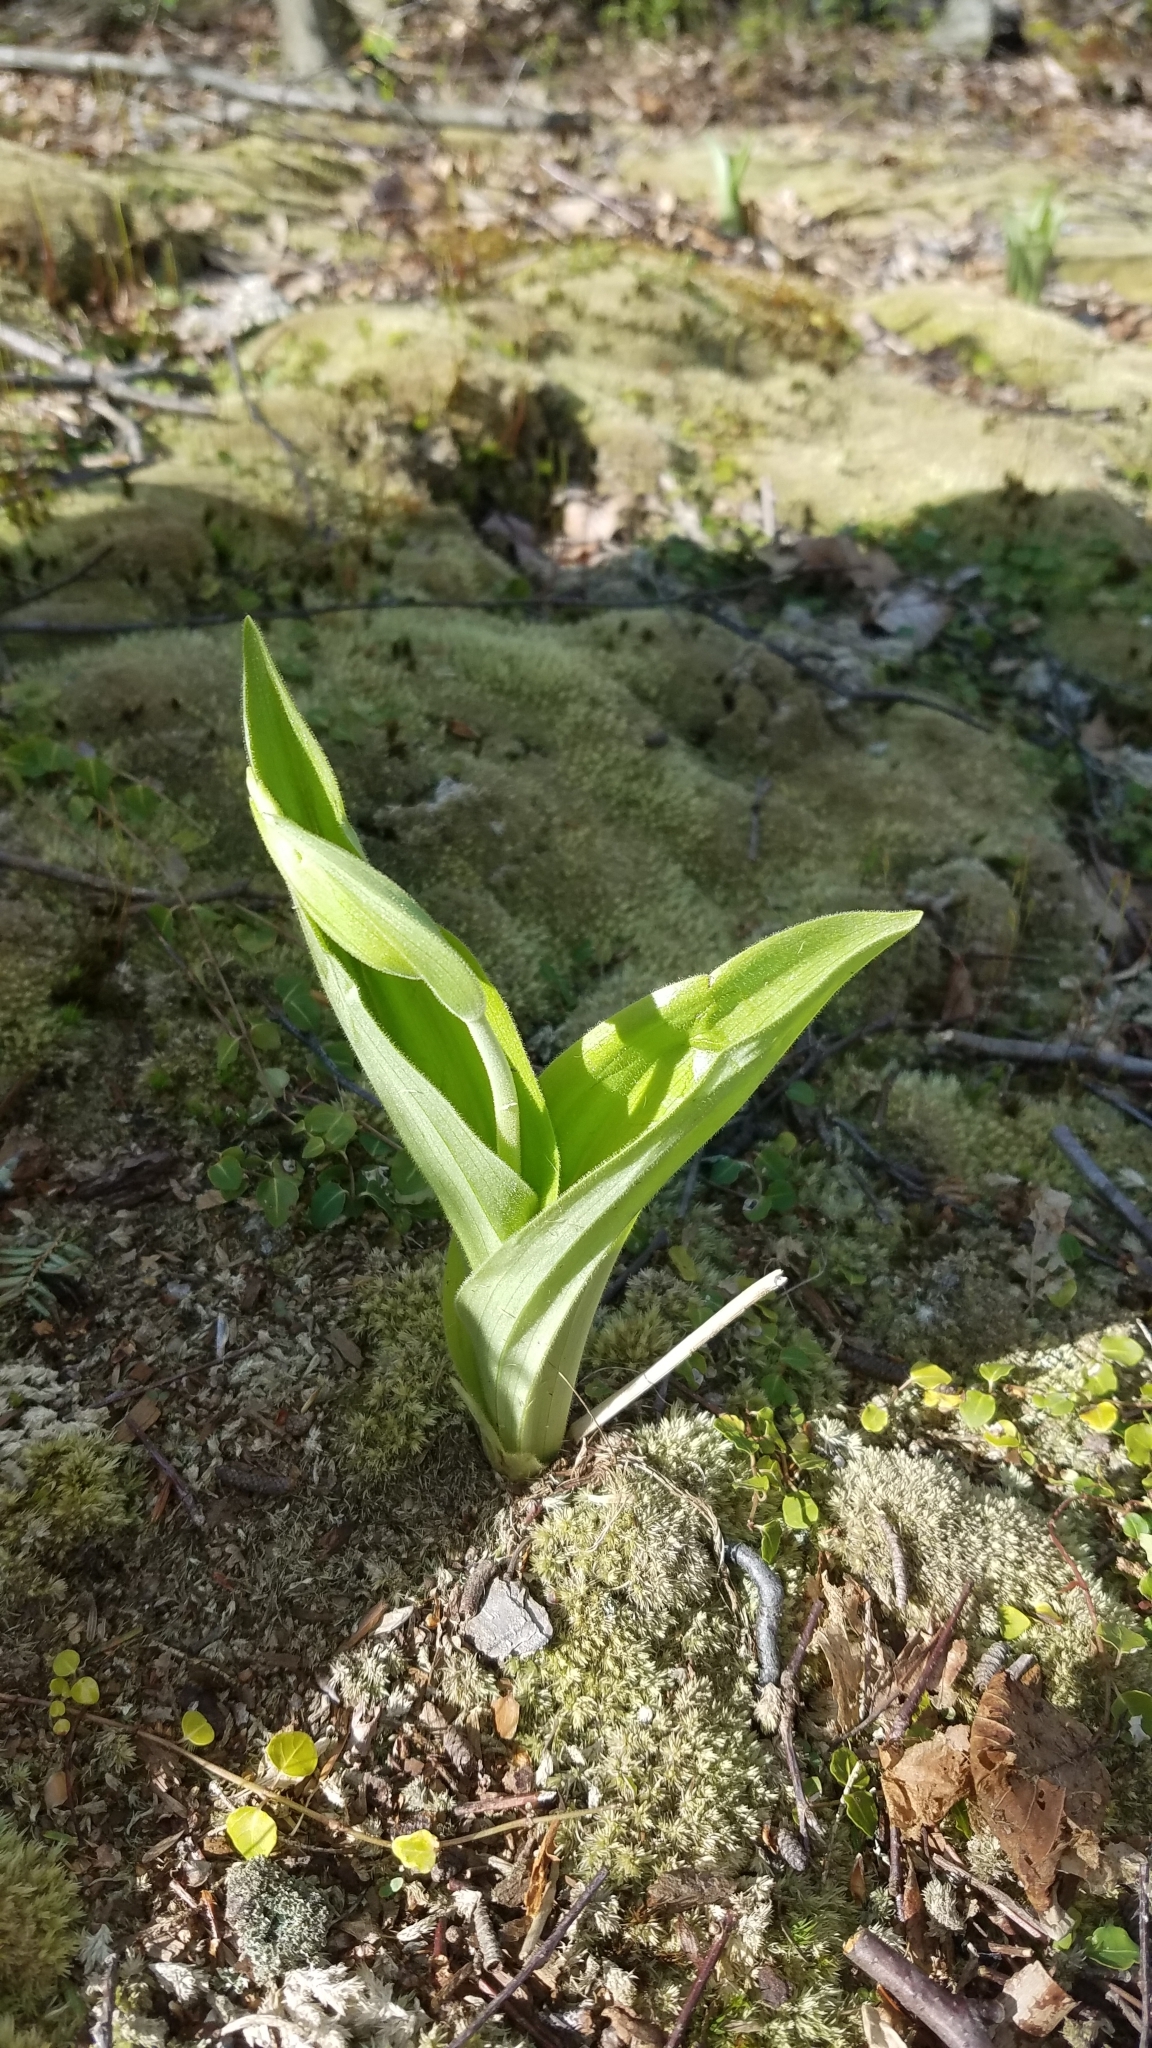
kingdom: Plantae
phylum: Tracheophyta
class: Liliopsida
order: Asparagales
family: Orchidaceae
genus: Cypripedium
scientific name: Cypripedium acaule
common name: Pink lady's-slipper
